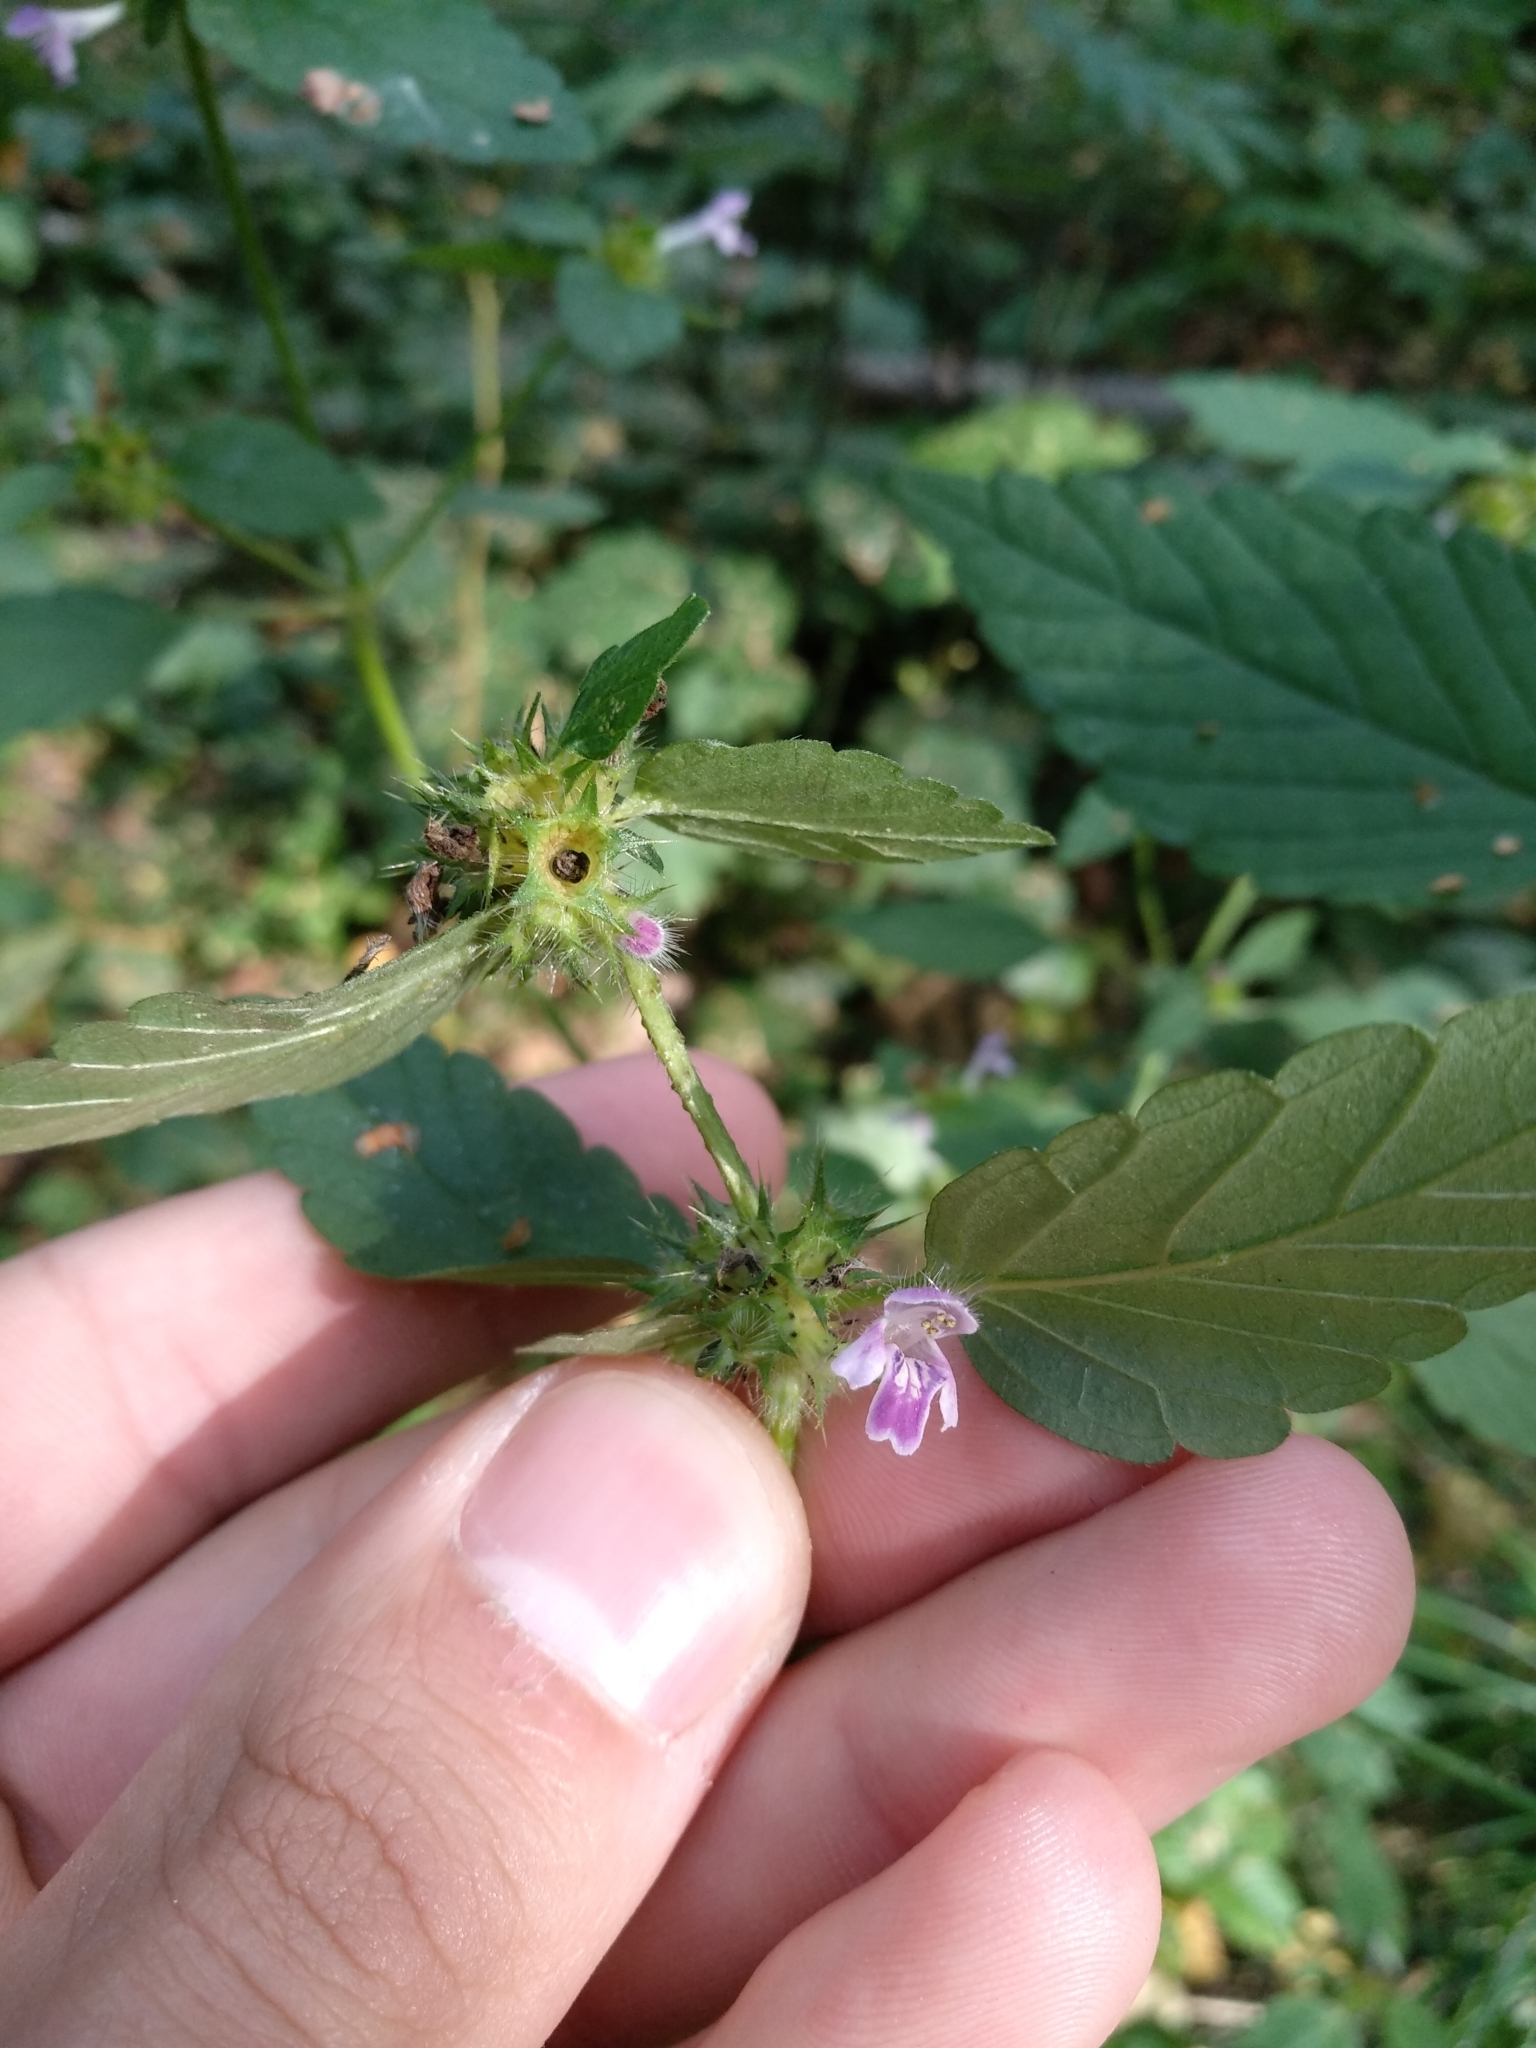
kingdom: Plantae
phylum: Tracheophyta
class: Magnoliopsida
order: Lamiales
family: Lamiaceae
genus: Galeopsis
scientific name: Galeopsis bifida
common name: Bifid hemp-nettle
